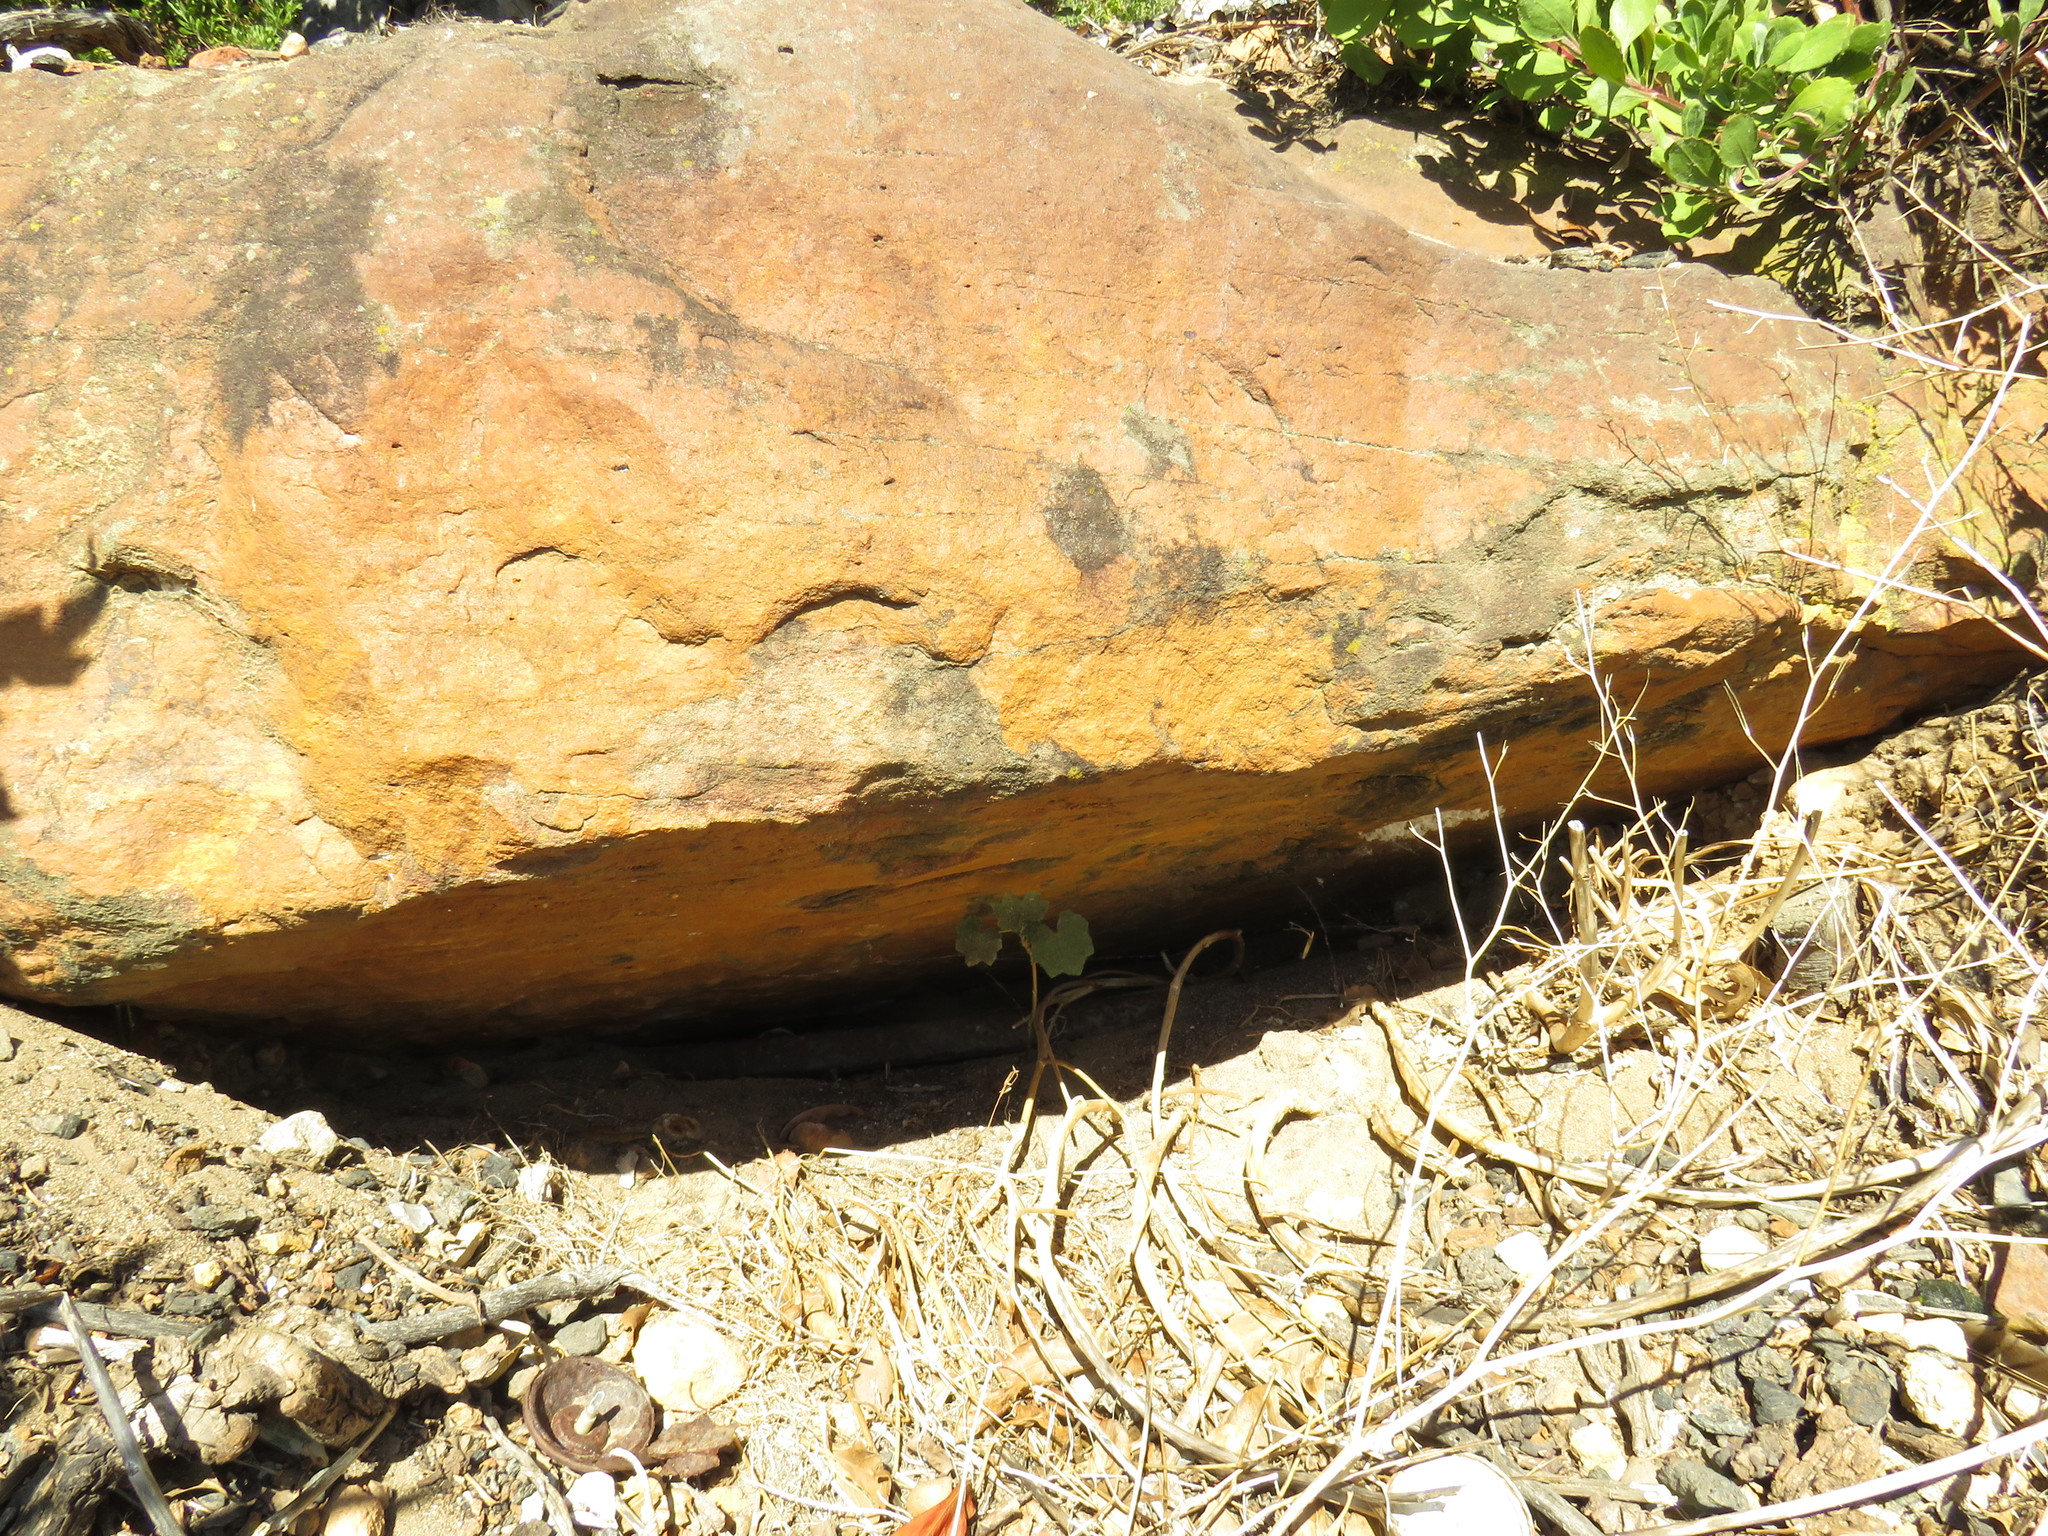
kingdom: Animalia
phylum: Arthropoda
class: Insecta
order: Hymenoptera
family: Apidae
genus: Apis
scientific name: Apis mellifera
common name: Honey bee
